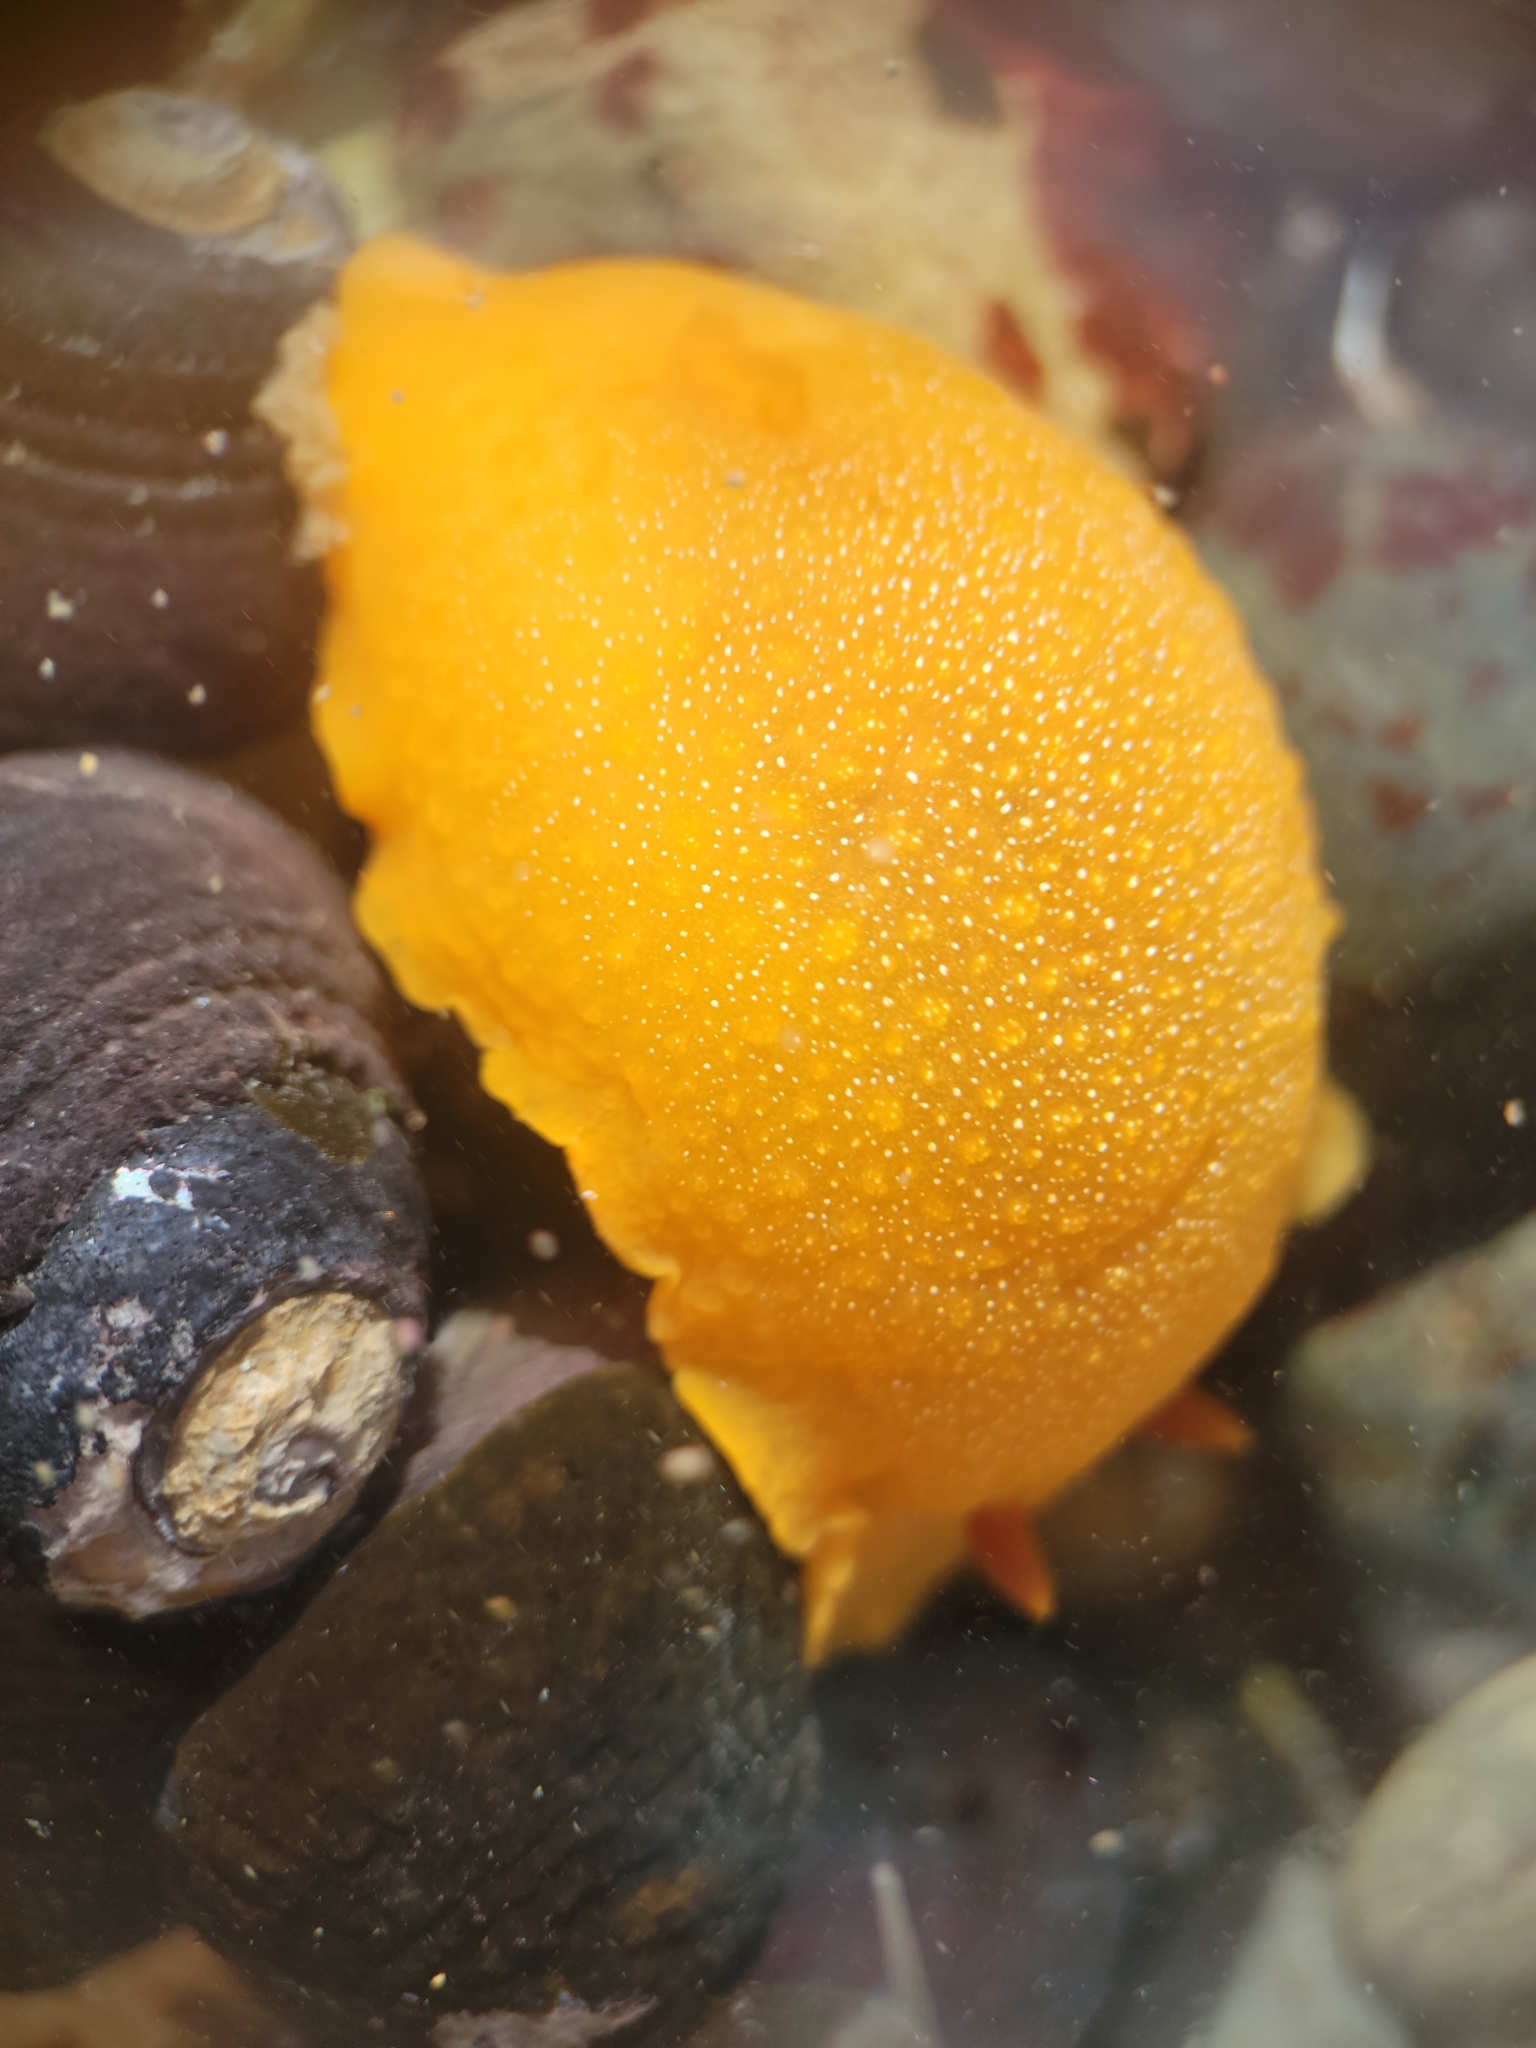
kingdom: Animalia
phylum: Mollusca
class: Gastropoda
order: Nudibranchia
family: Dendrodorididae
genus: Doriopsilla
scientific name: Doriopsilla albopunctata
